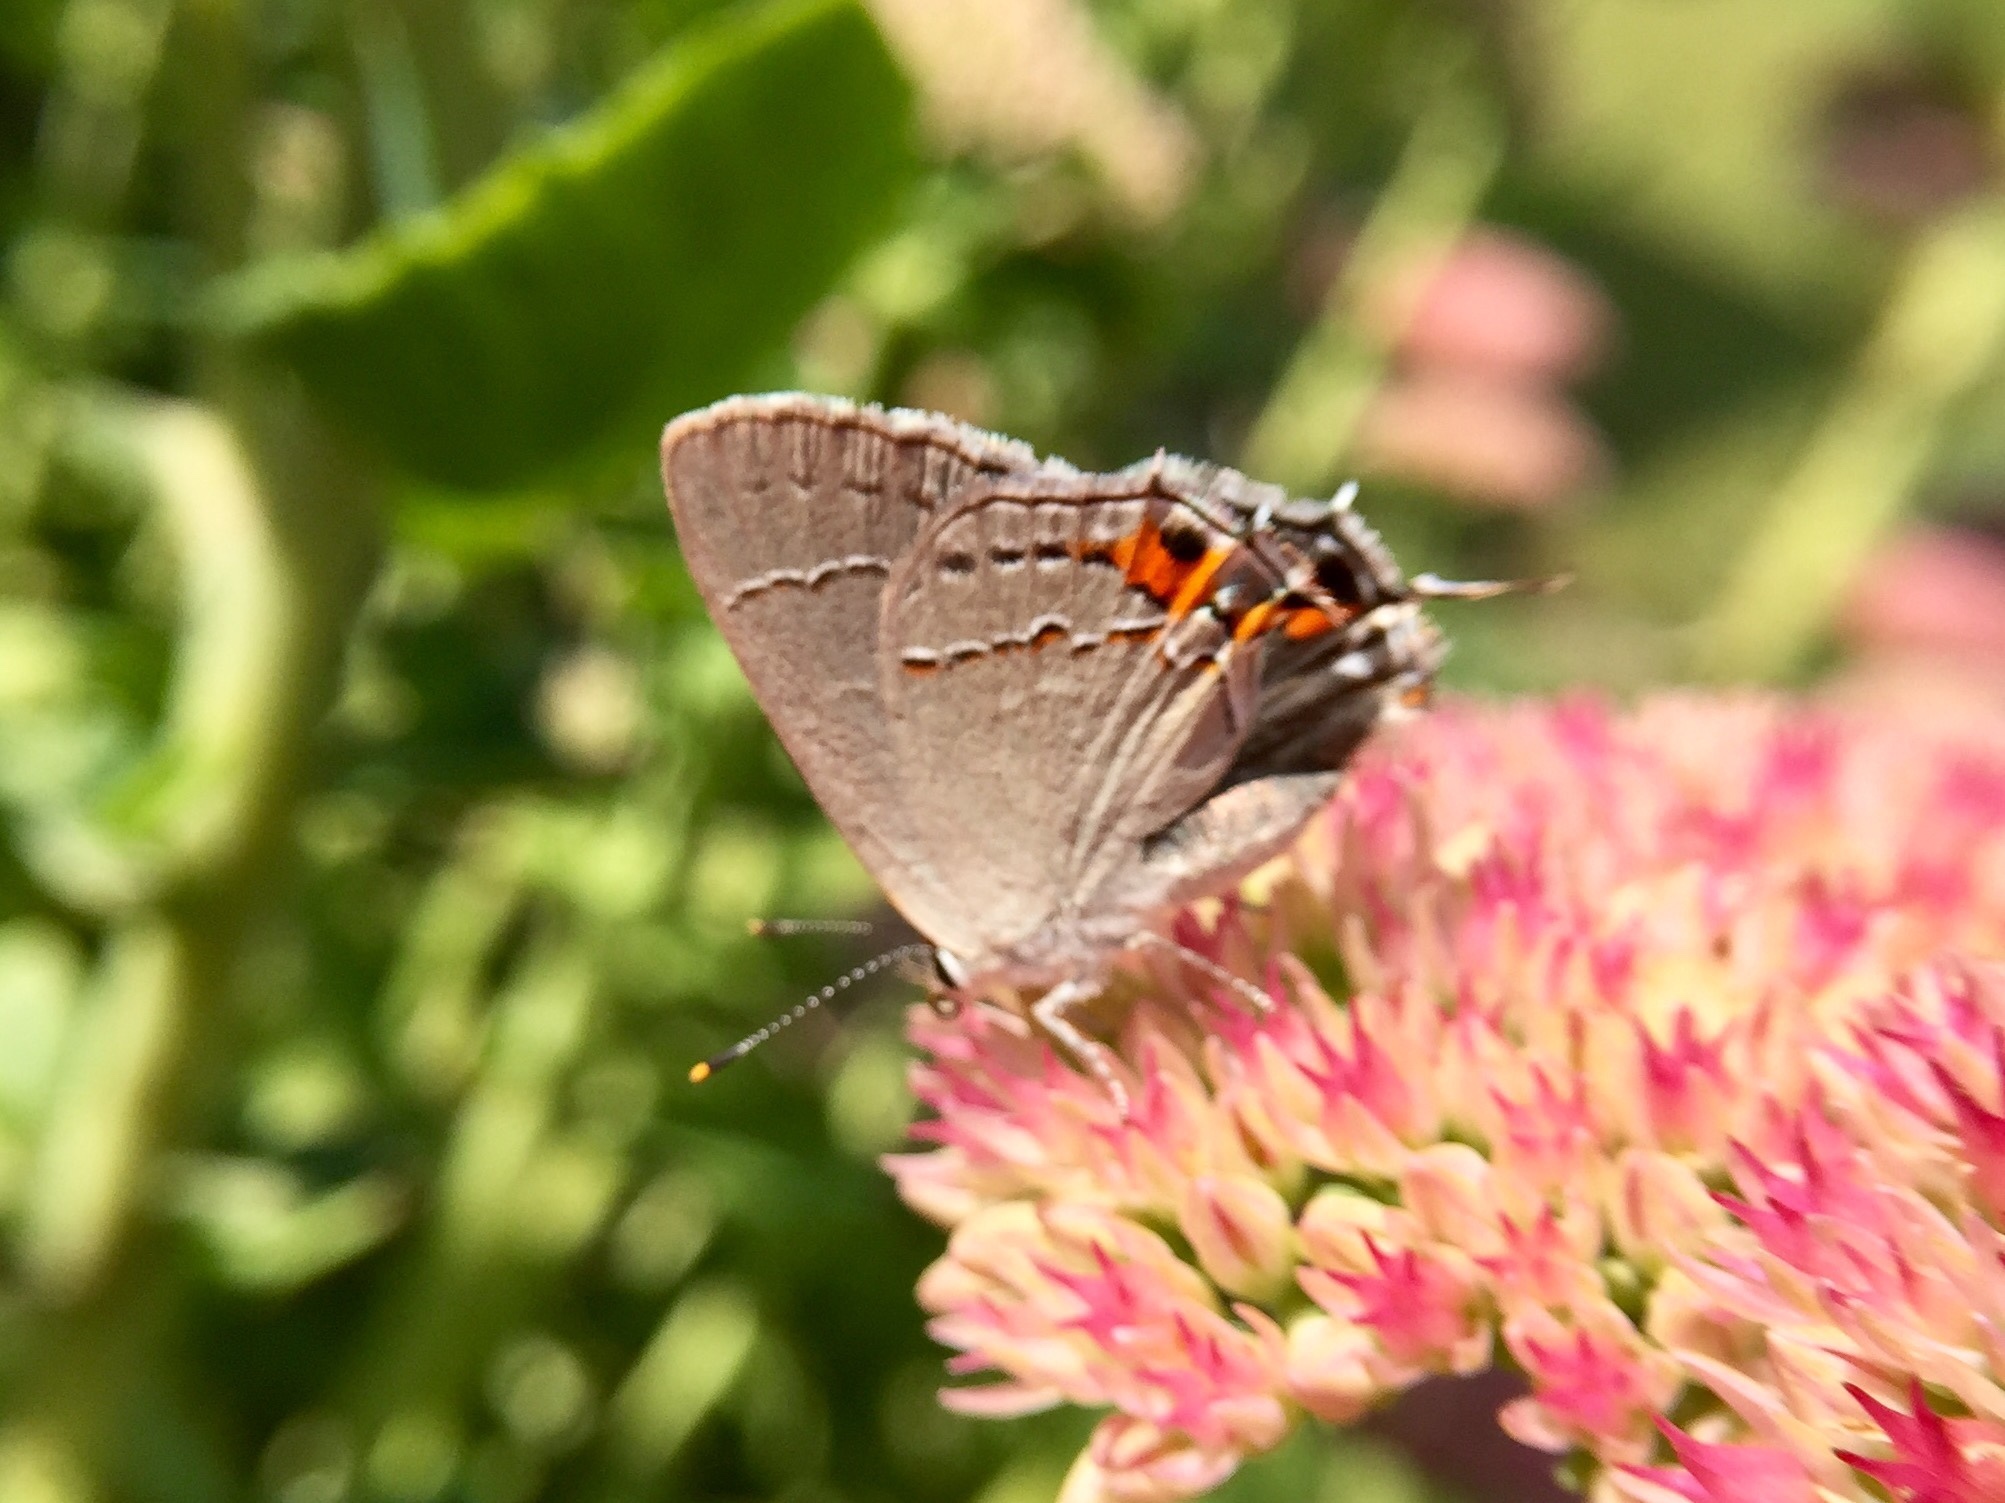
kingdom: Animalia
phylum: Arthropoda
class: Insecta
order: Lepidoptera
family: Lycaenidae
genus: Strymon
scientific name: Strymon melinus
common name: Gray hairstreak
